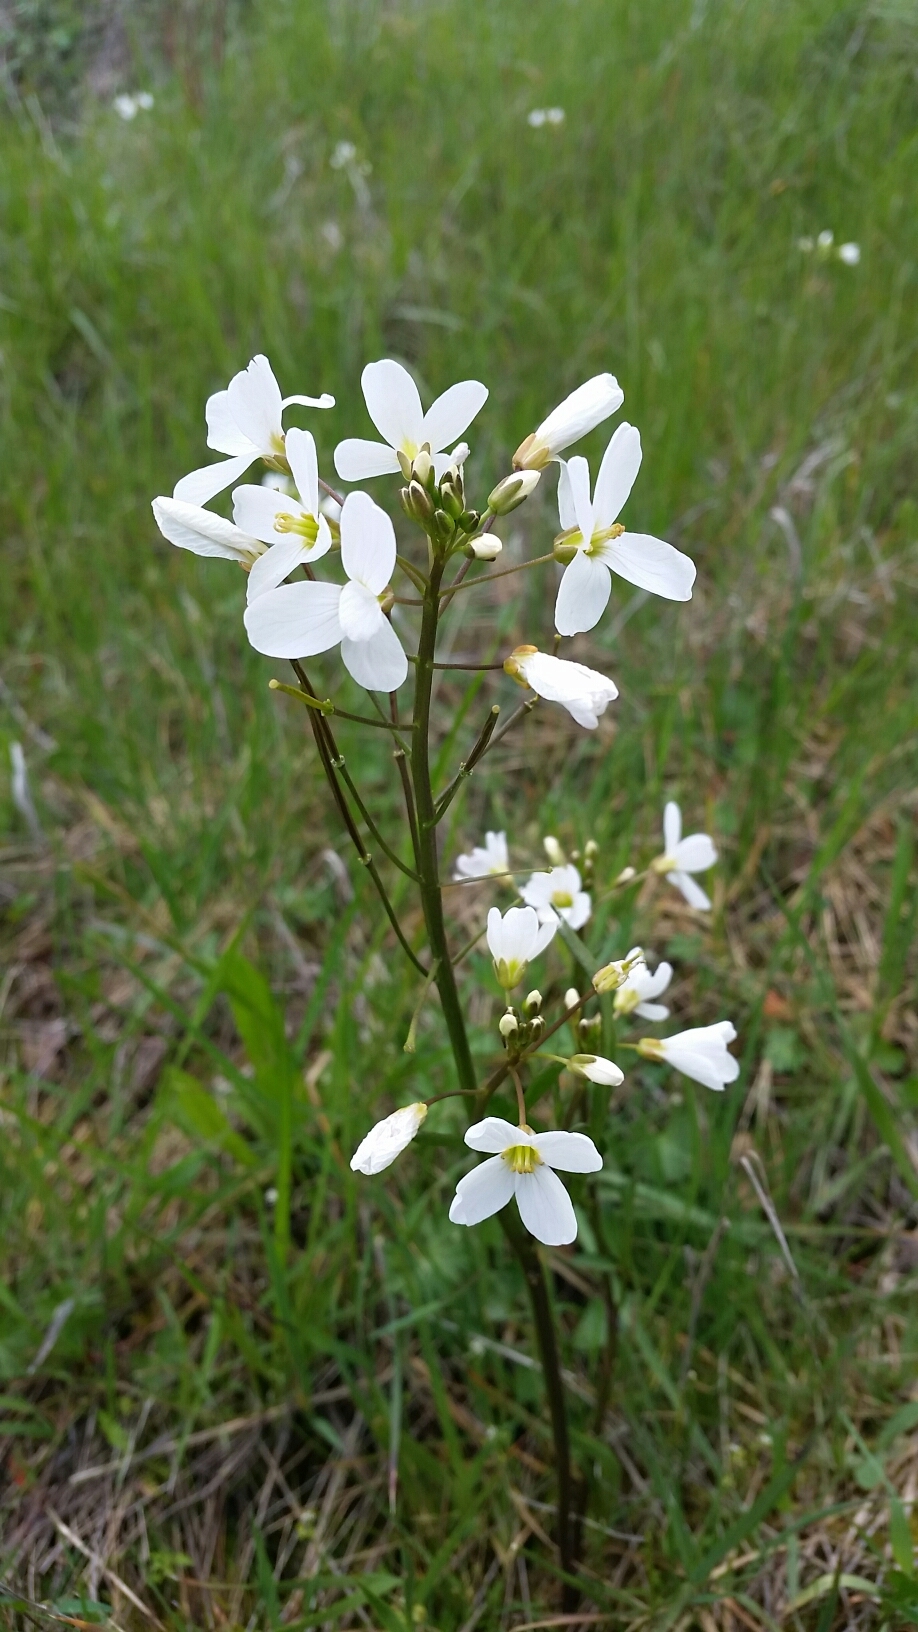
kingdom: Plantae
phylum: Tracheophyta
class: Magnoliopsida
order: Brassicales
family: Brassicaceae
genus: Cardamine
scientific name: Cardamine californica
